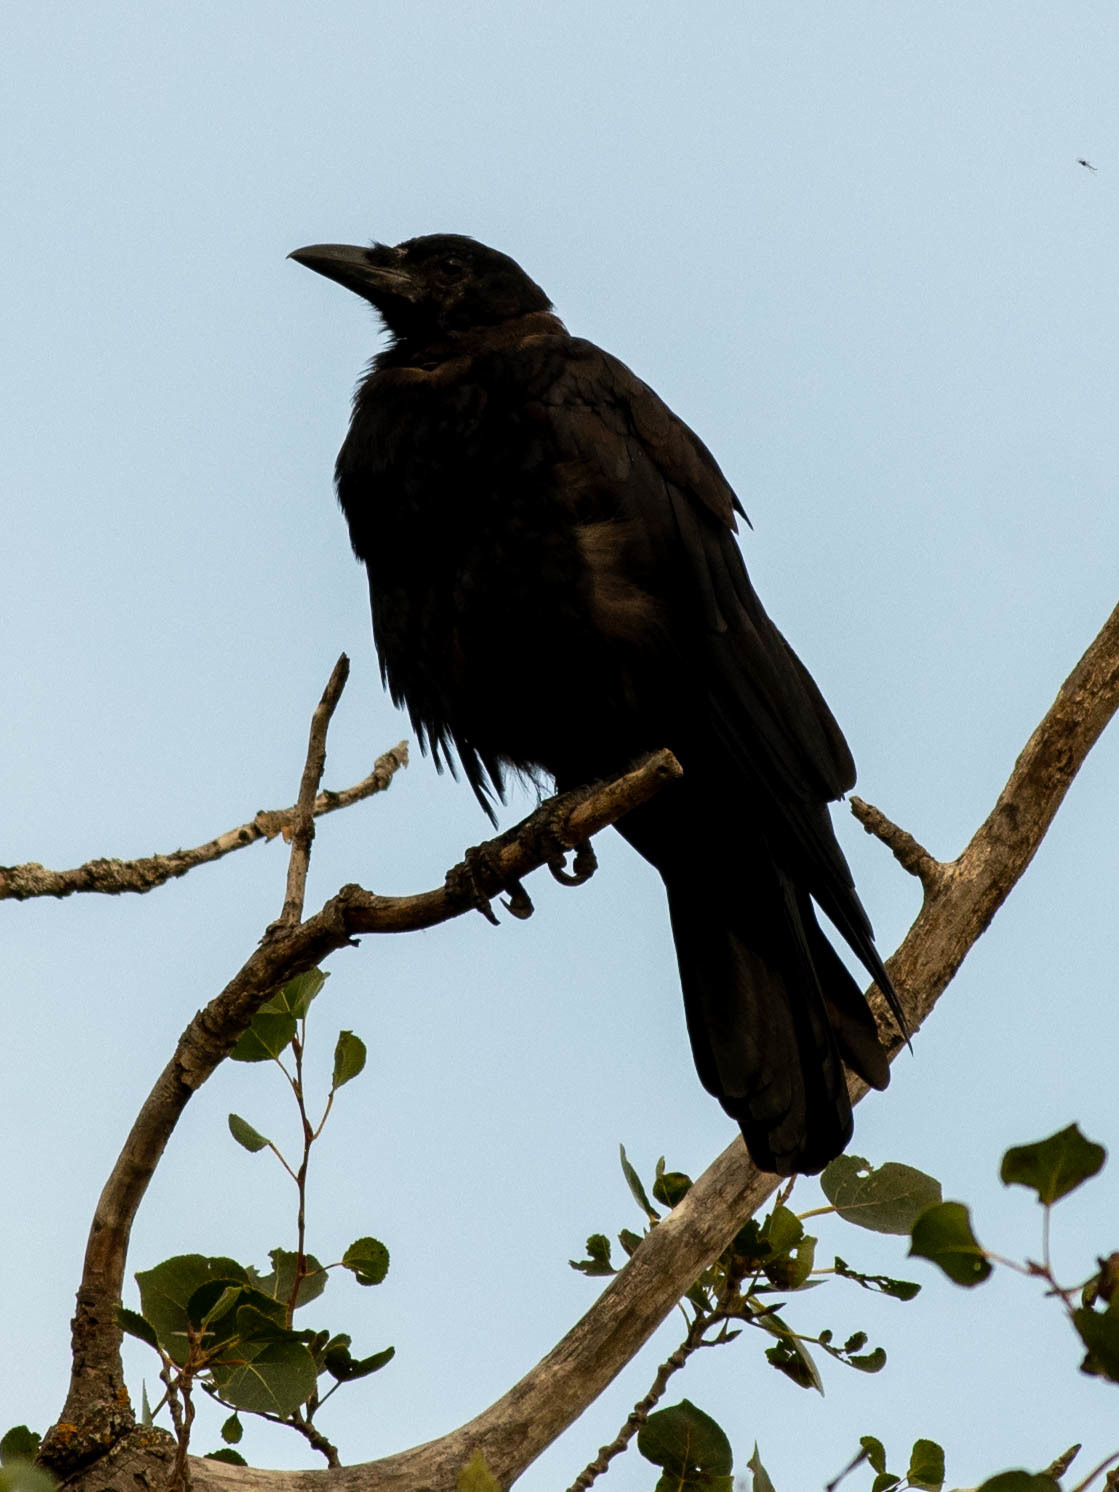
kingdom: Animalia
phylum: Chordata
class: Aves
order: Passeriformes
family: Corvidae
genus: Corvus
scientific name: Corvus corax
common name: Common raven
